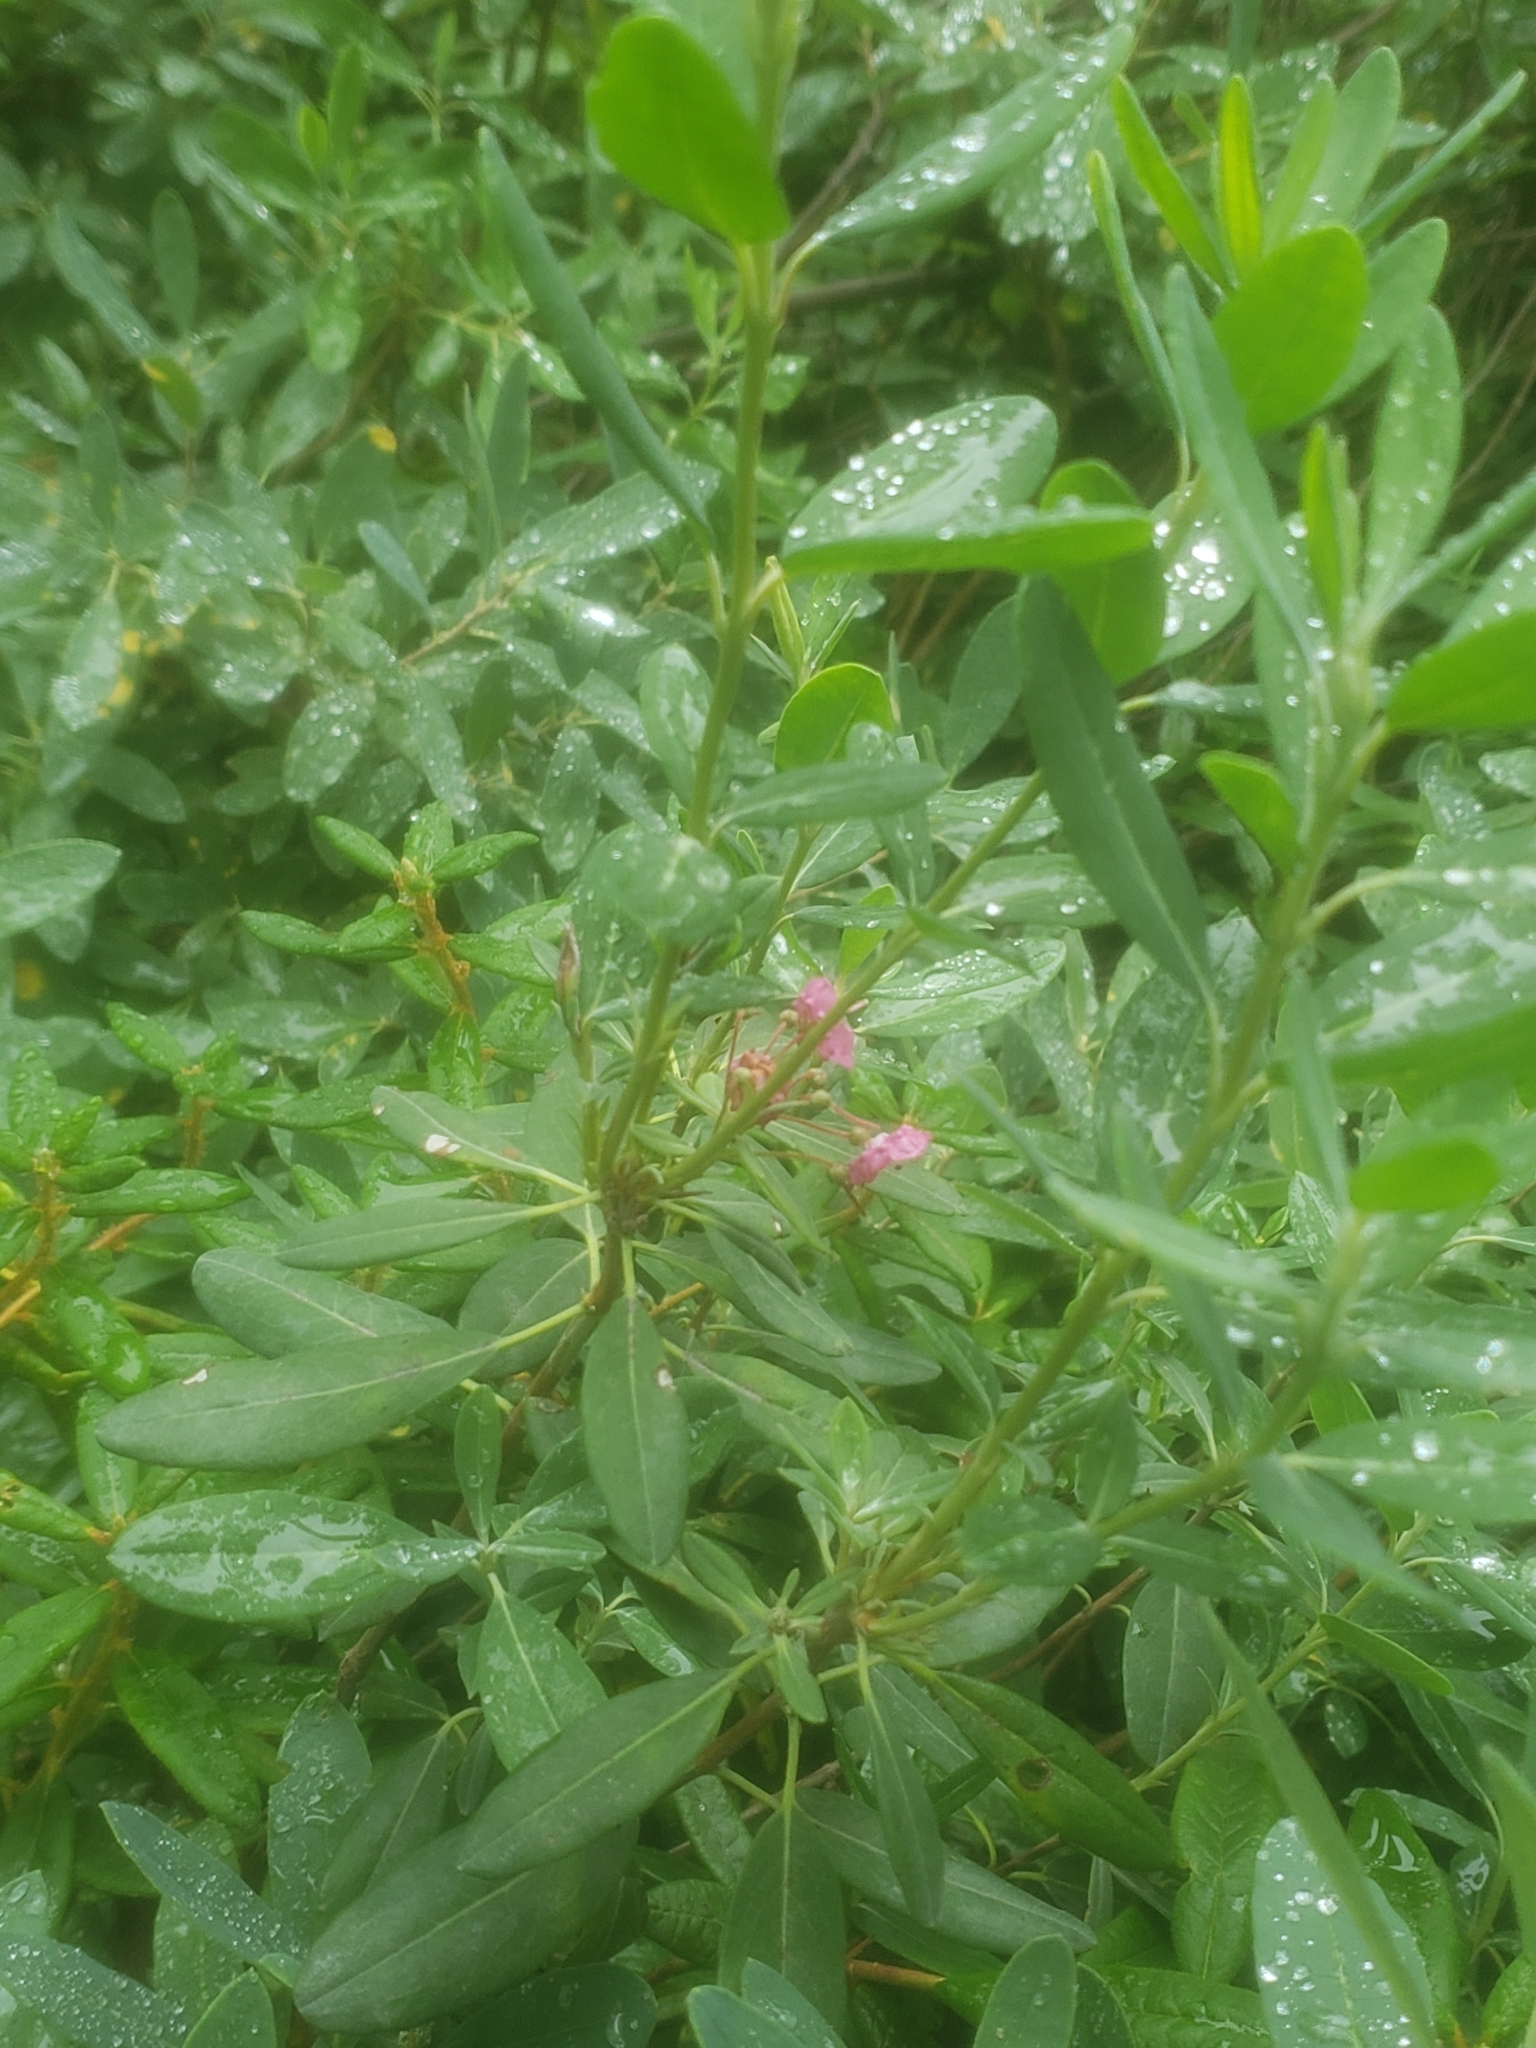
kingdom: Plantae
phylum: Tracheophyta
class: Magnoliopsida
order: Ericales
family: Ericaceae
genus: Kalmia
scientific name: Kalmia angustifolia
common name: Sheep-laurel
